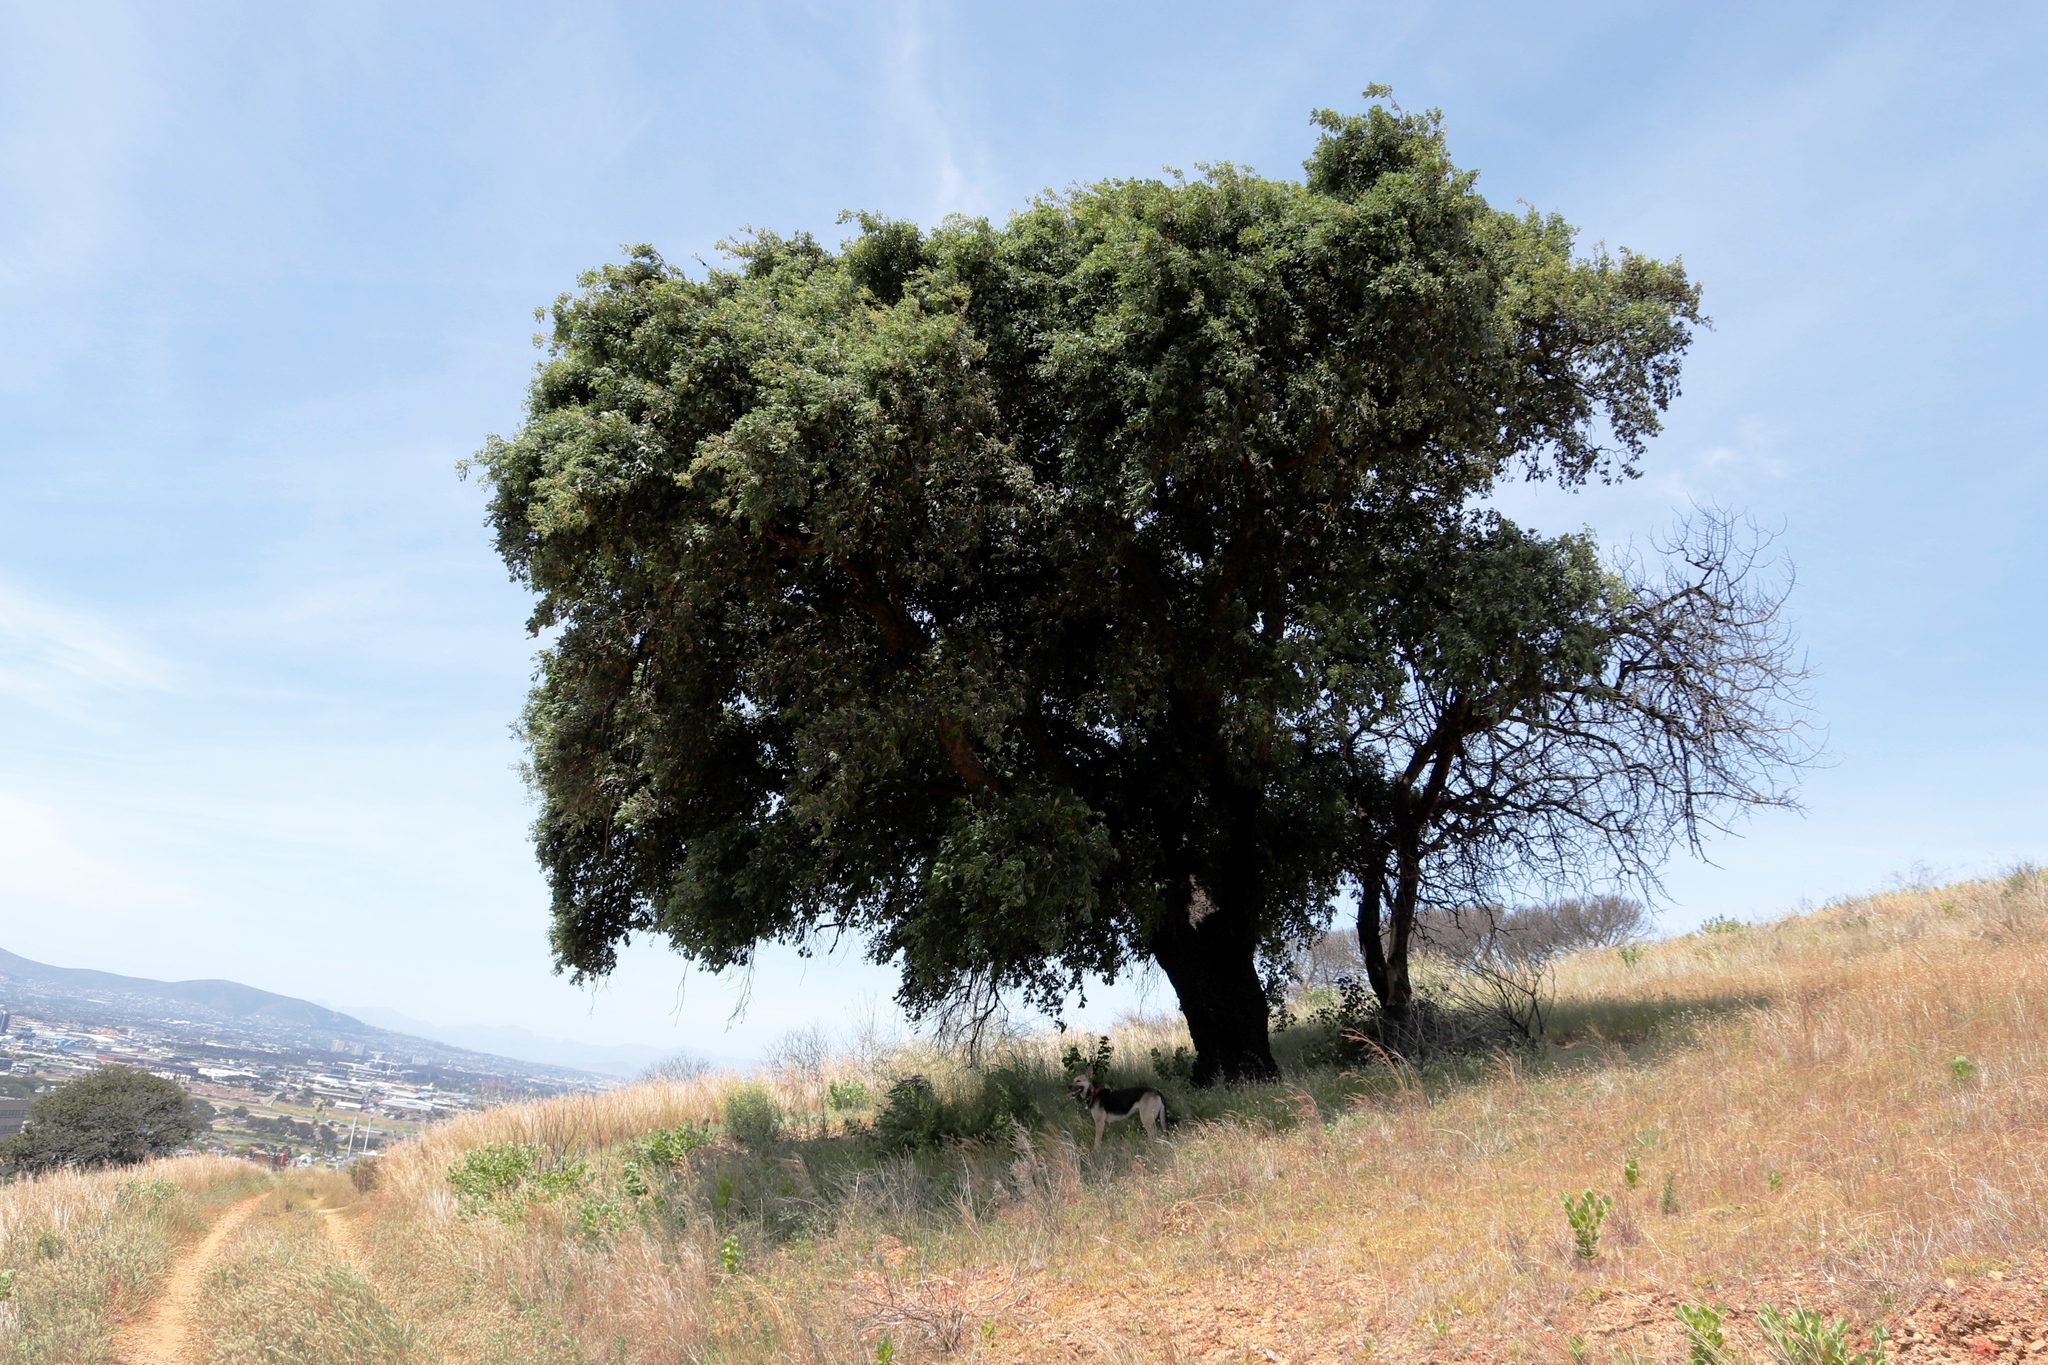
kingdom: Plantae
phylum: Tracheophyta
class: Magnoliopsida
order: Fagales
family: Fagaceae
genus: Quercus
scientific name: Quercus suber
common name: Cork oak
